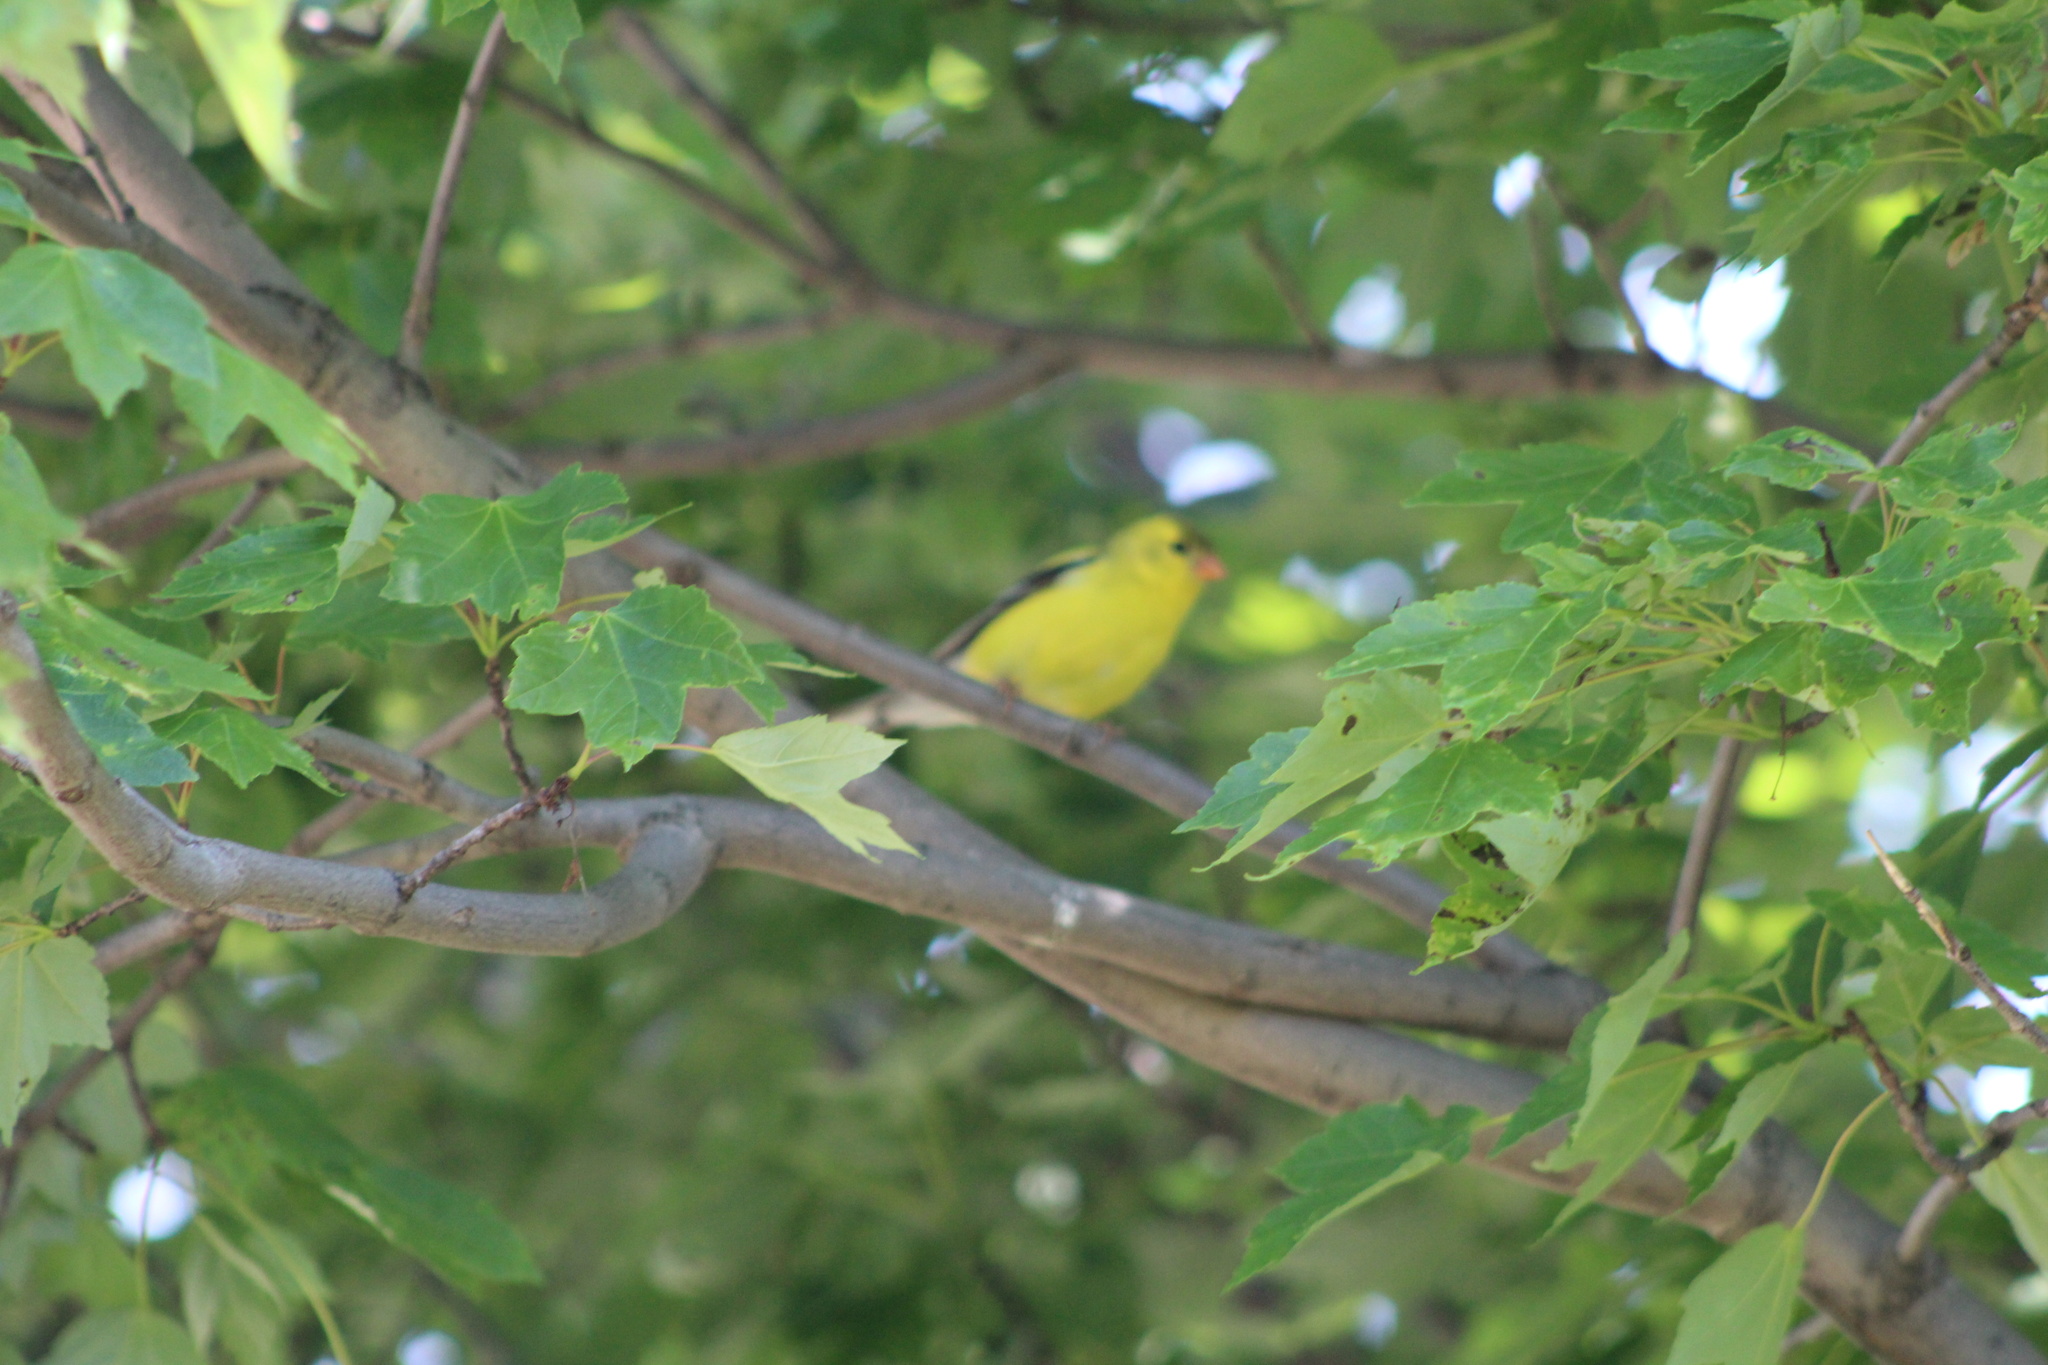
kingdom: Animalia
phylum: Chordata
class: Aves
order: Passeriformes
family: Fringillidae
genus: Spinus
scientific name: Spinus tristis
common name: American goldfinch
